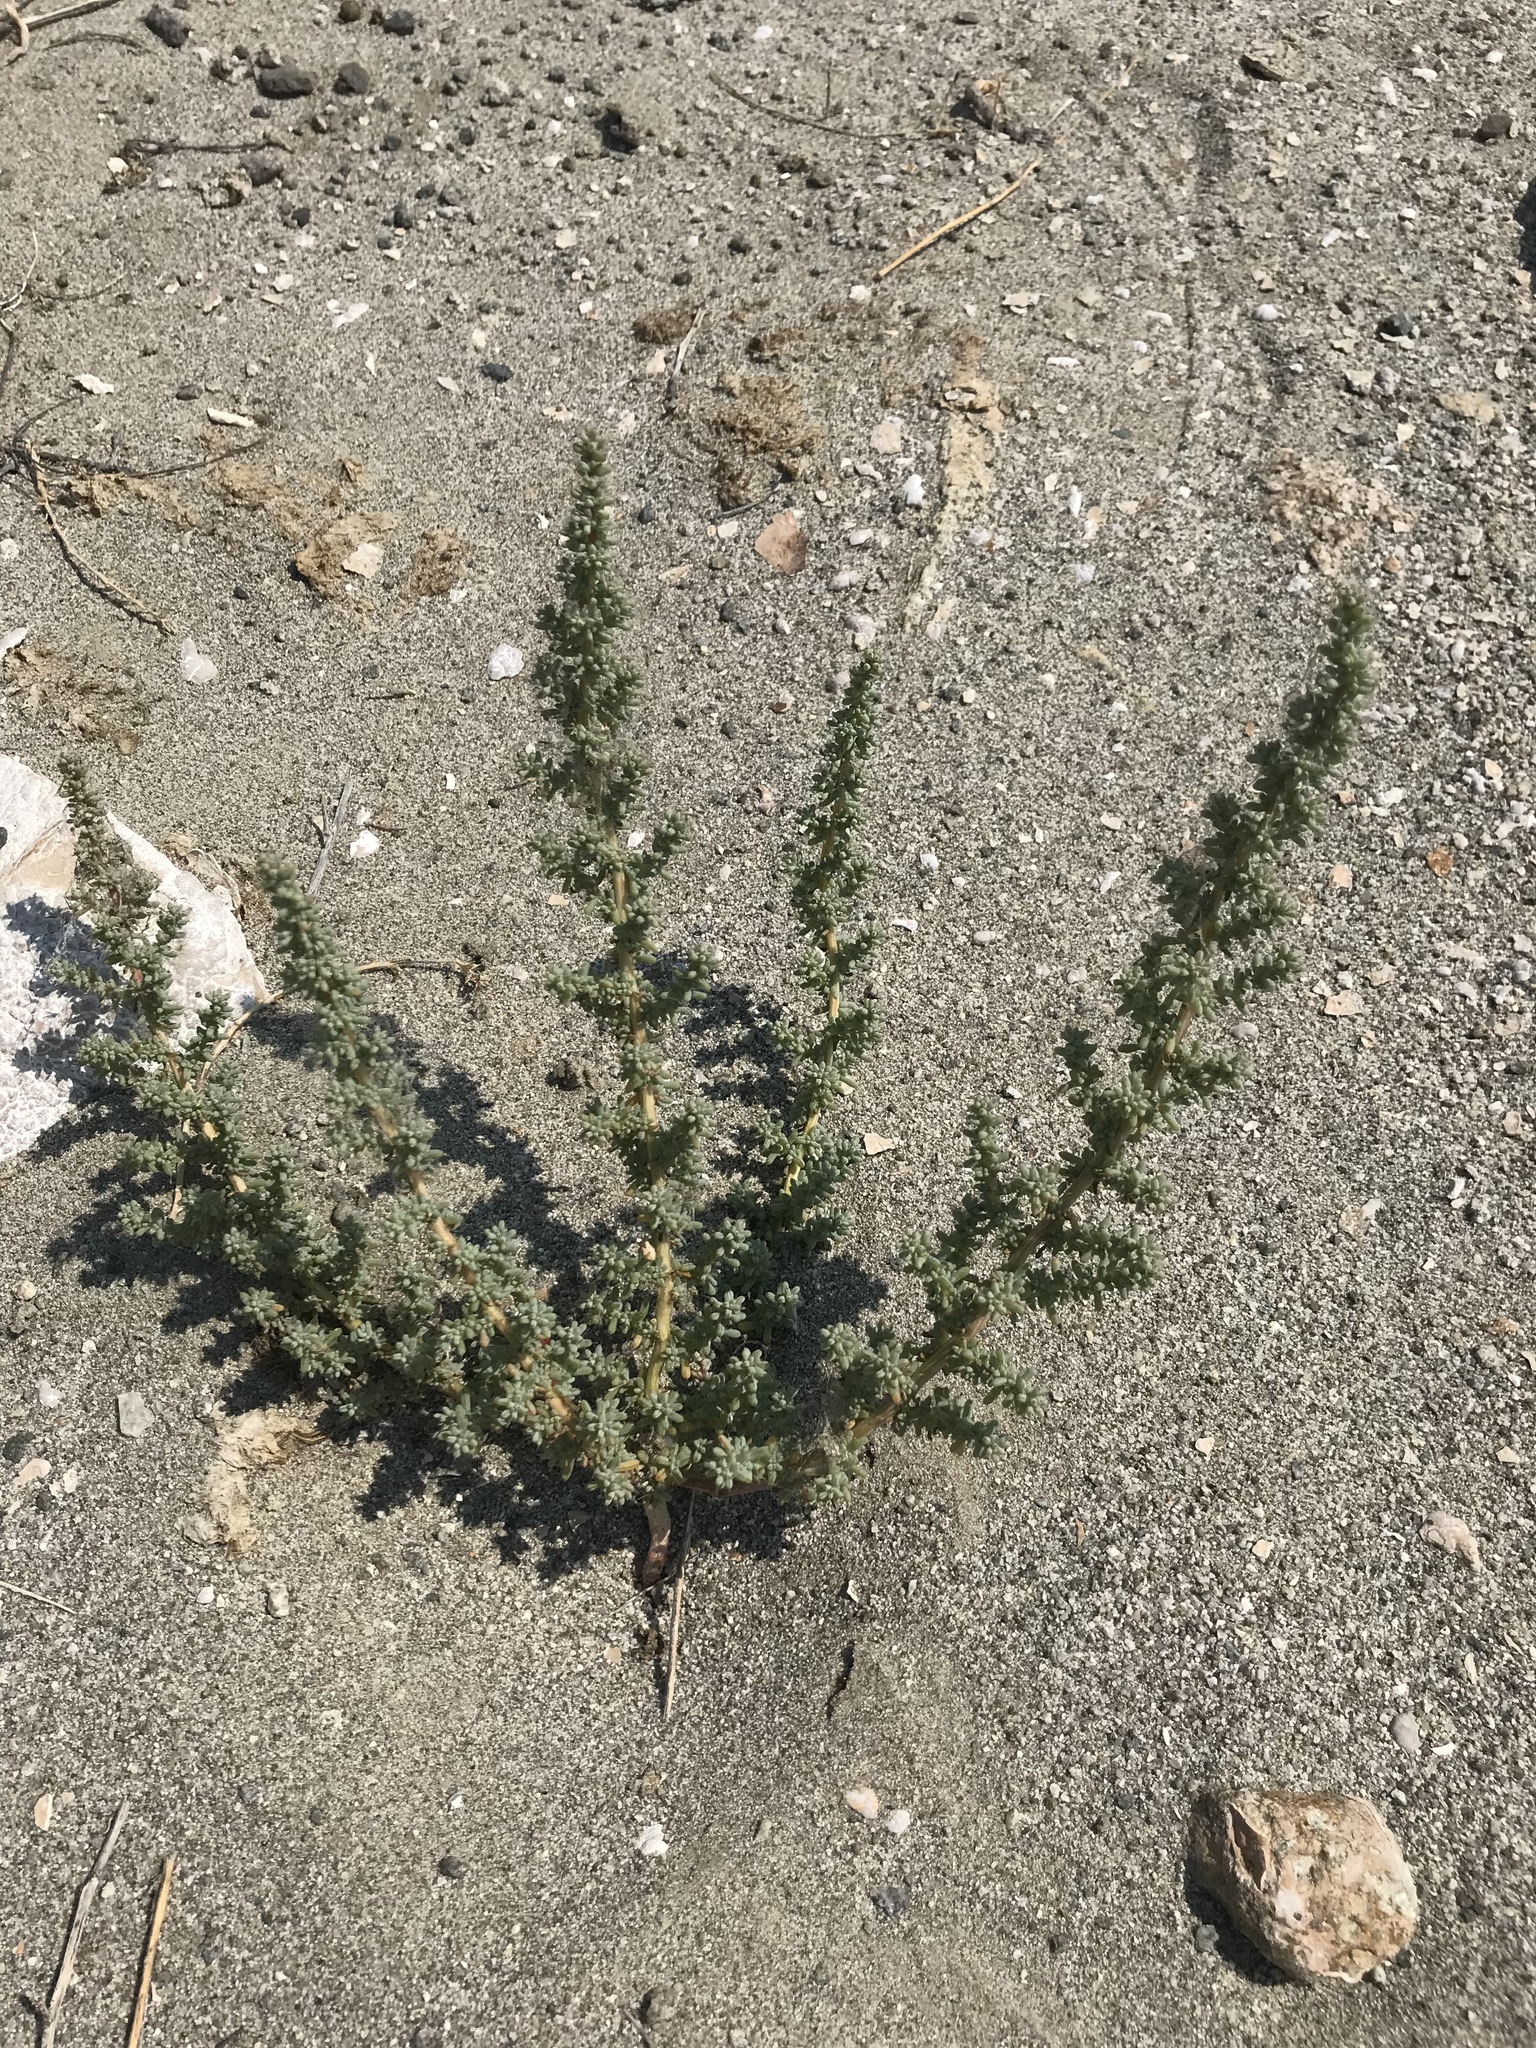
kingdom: Plantae
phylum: Tracheophyta
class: Magnoliopsida
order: Caryophyllales
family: Amaranthaceae
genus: Halogeton
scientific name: Halogeton glomeratus
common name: Saltlover
